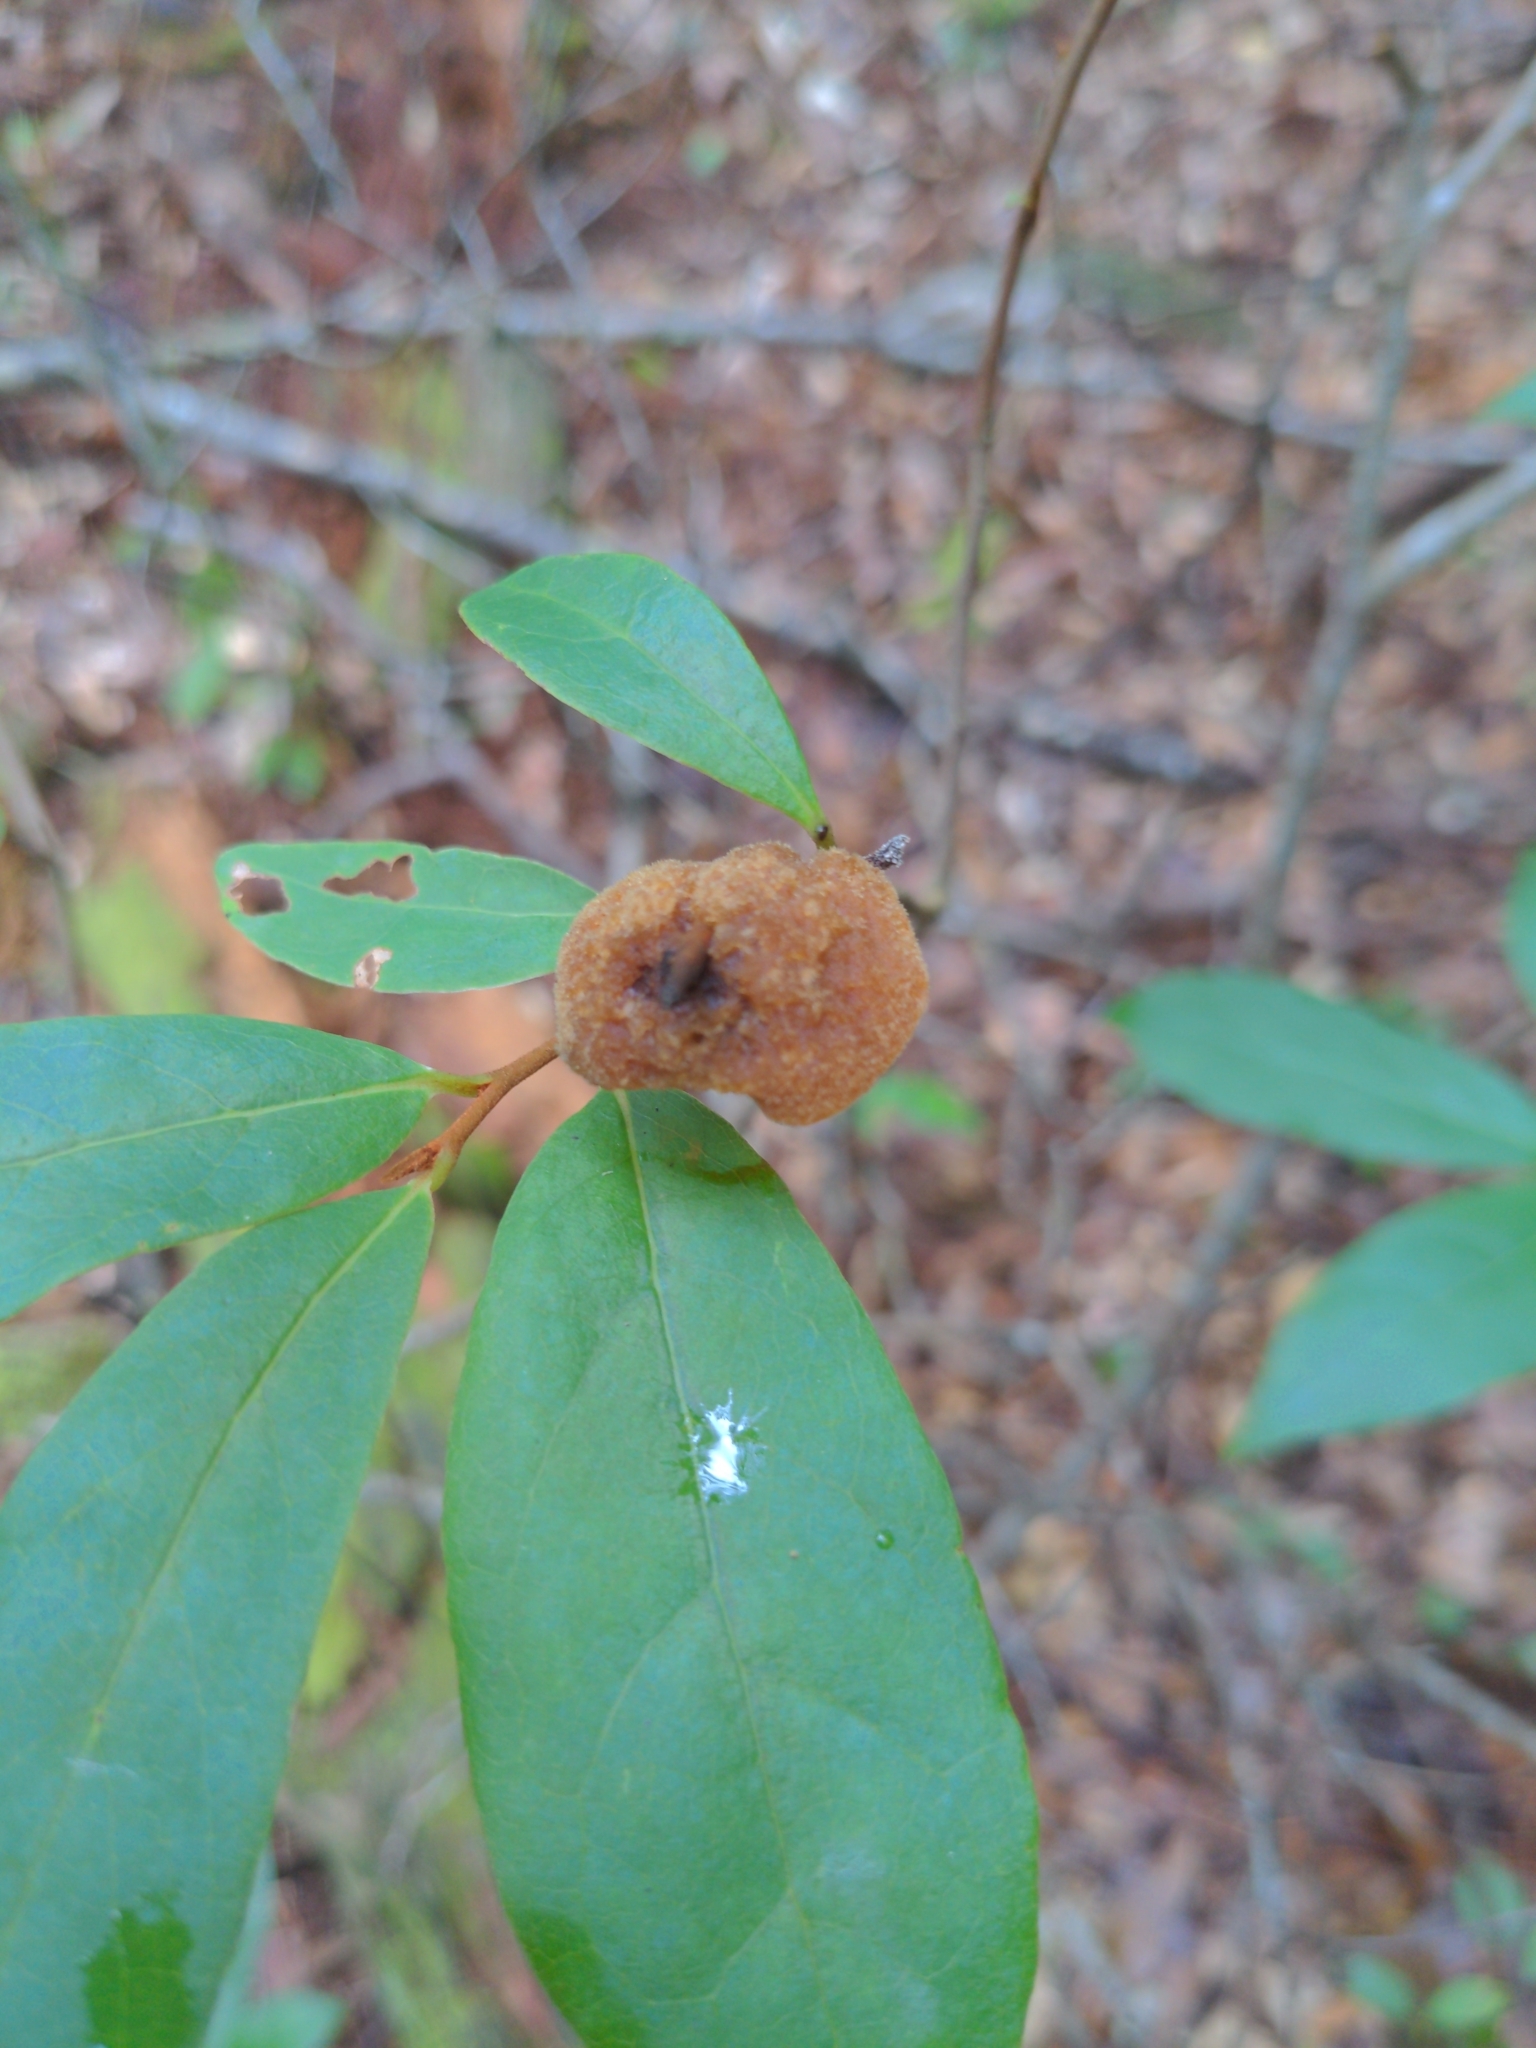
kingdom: Fungi
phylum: Basidiomycota
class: Agaricomycetes
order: Hymenochaetales
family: Hymenochaetaceae
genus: Phylloporia
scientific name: Phylloporia amplectens
